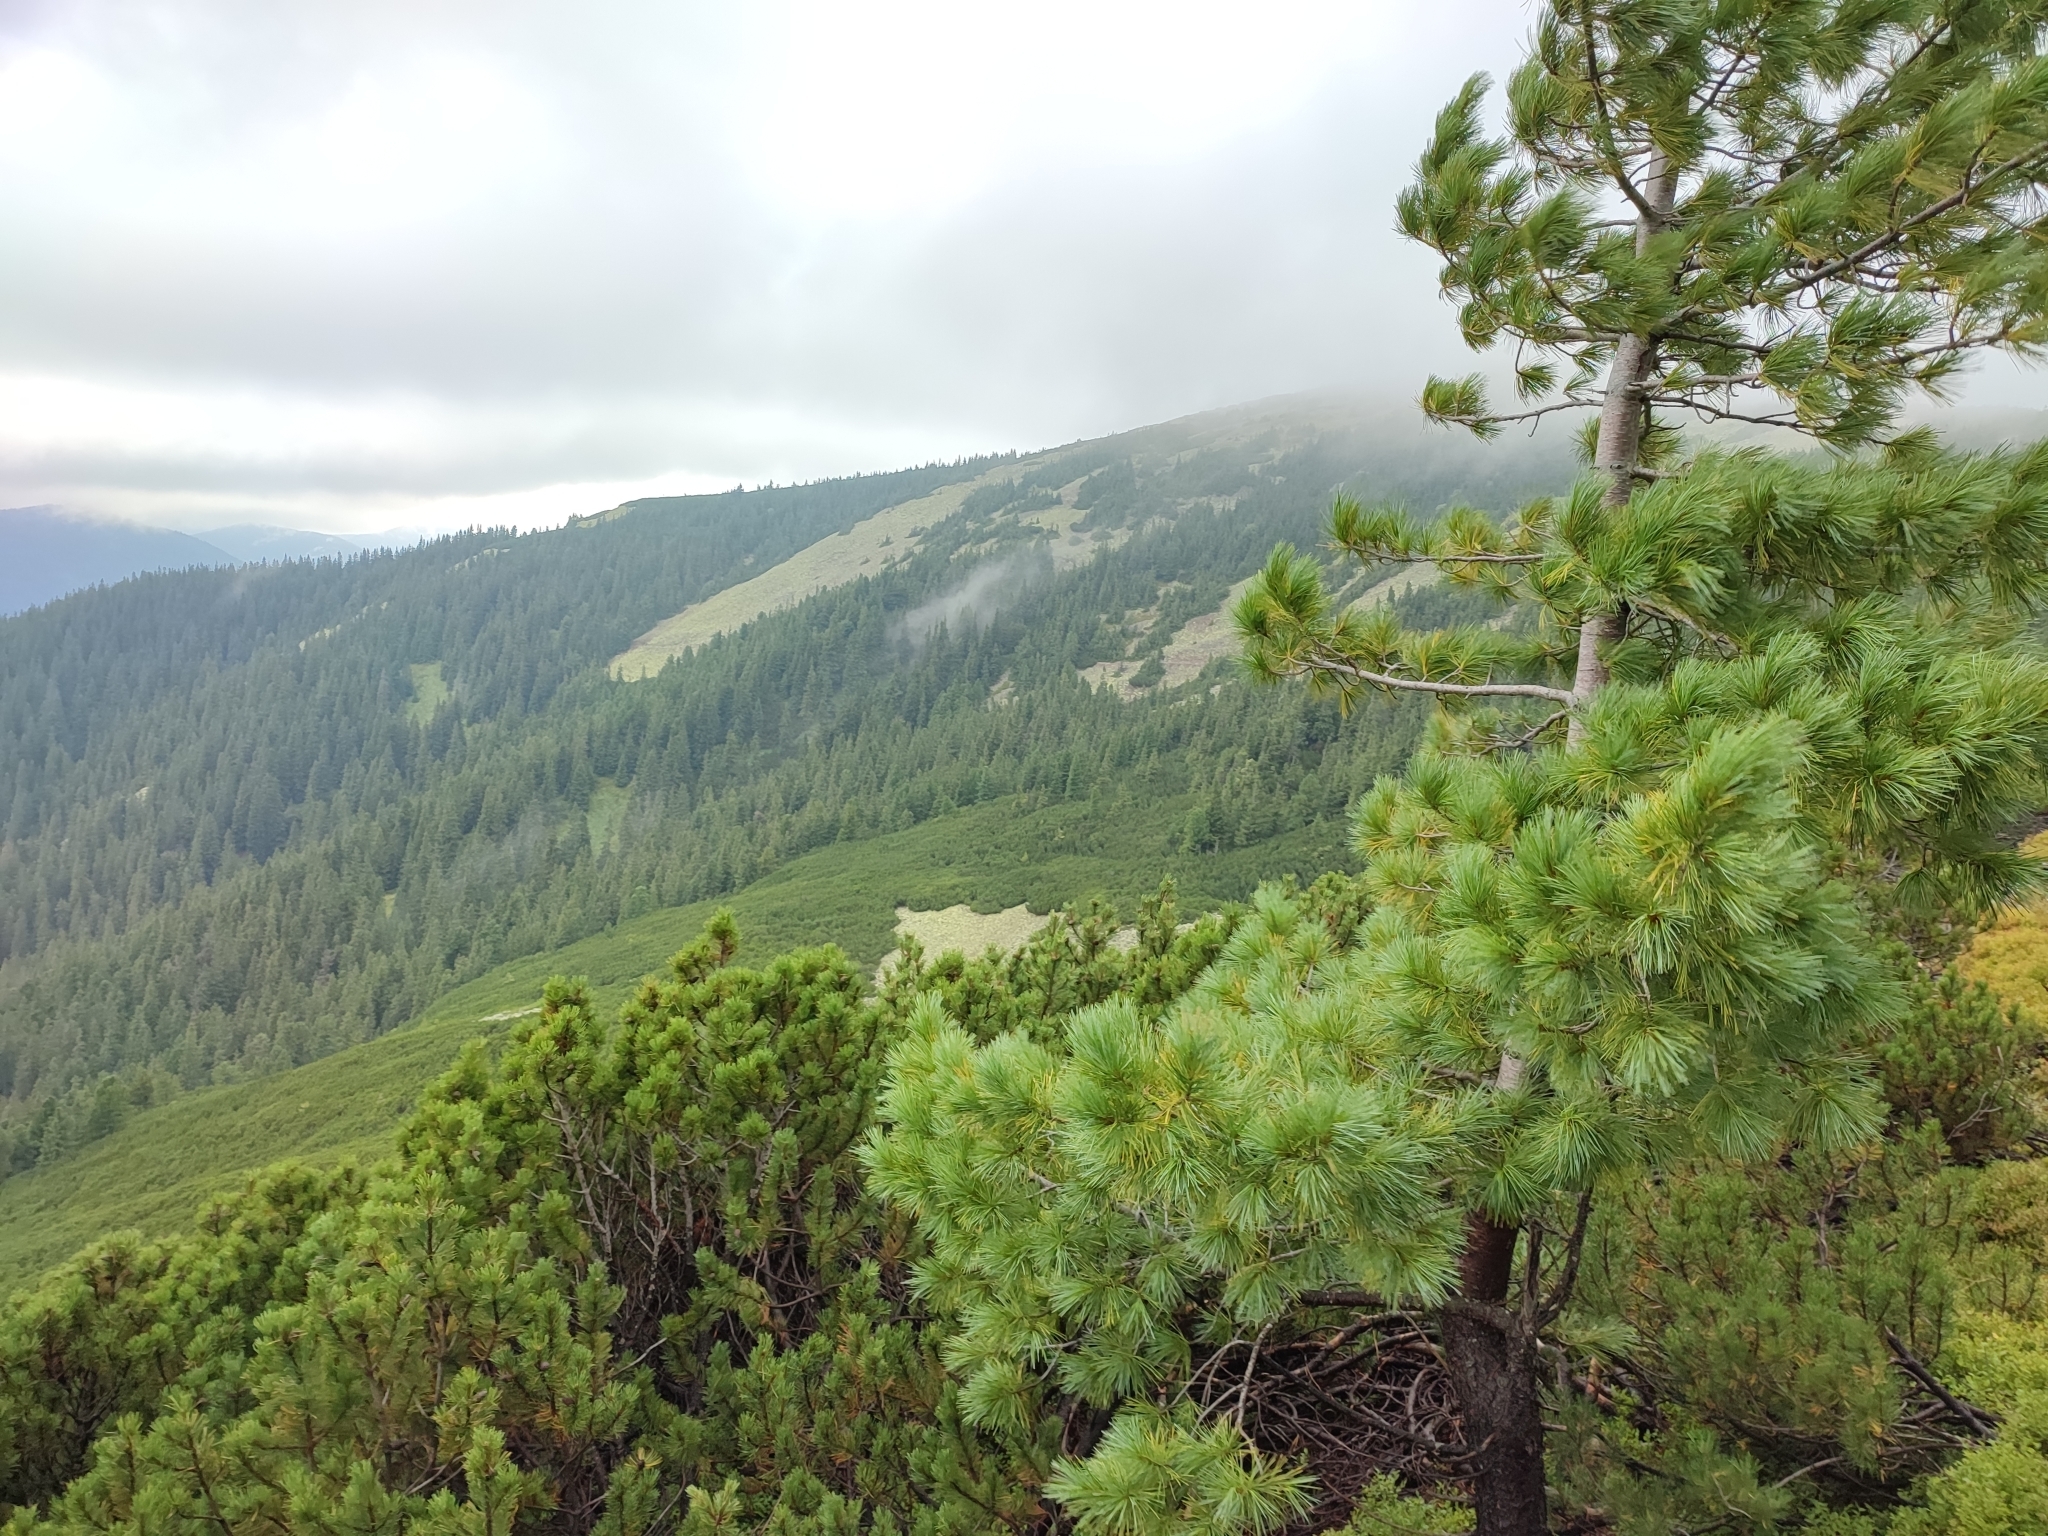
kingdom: Plantae
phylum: Tracheophyta
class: Pinopsida
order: Pinales
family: Pinaceae
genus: Pinus
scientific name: Pinus cembra
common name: Arolla pine
